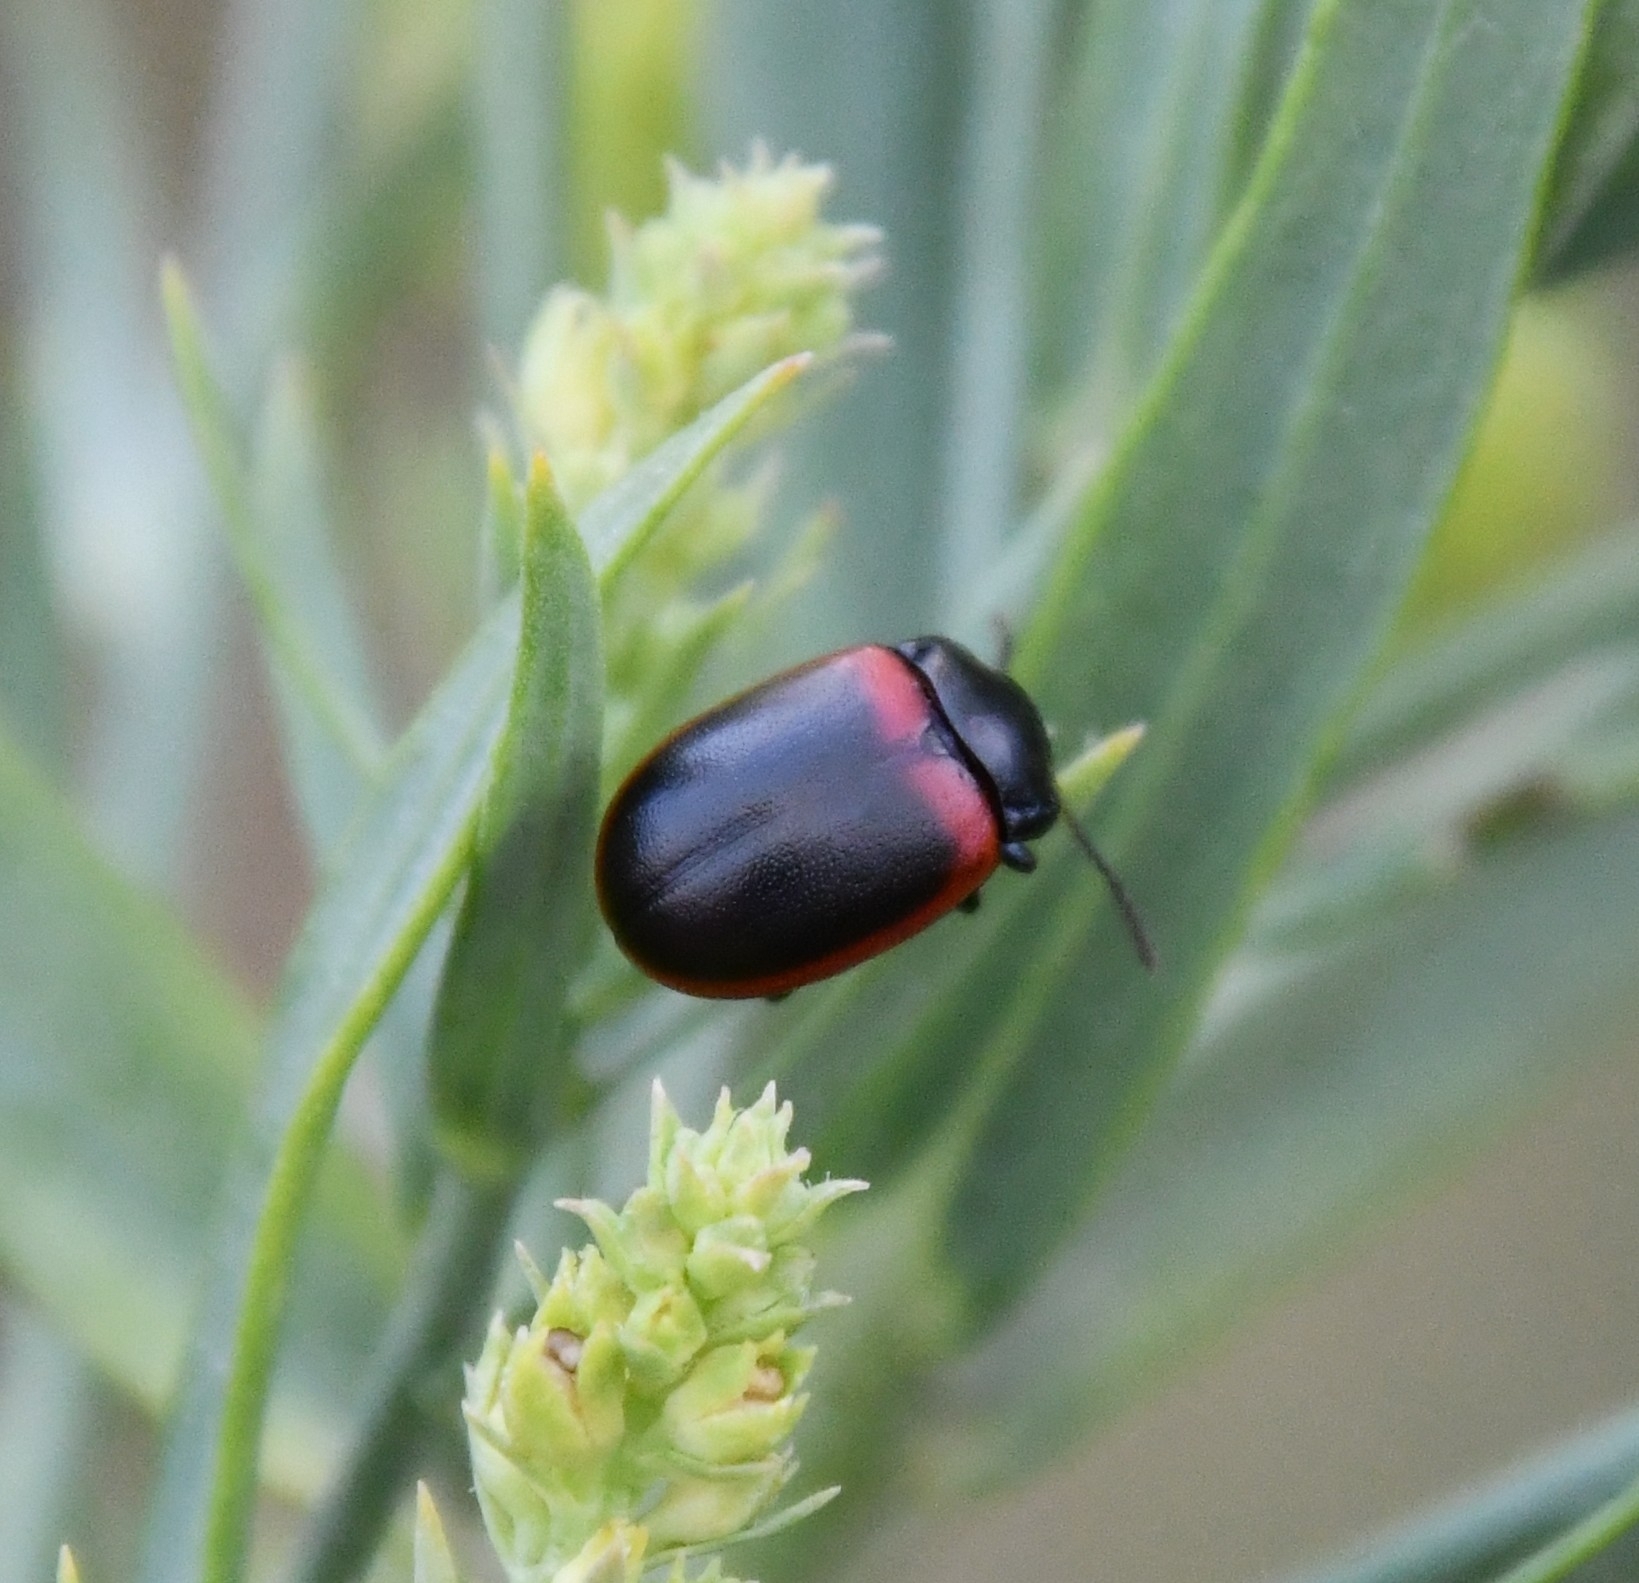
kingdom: Animalia
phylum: Arthropoda
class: Insecta
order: Coleoptera
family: Chrysomelidae
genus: Chrysolina
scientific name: Chrysolina limbata
